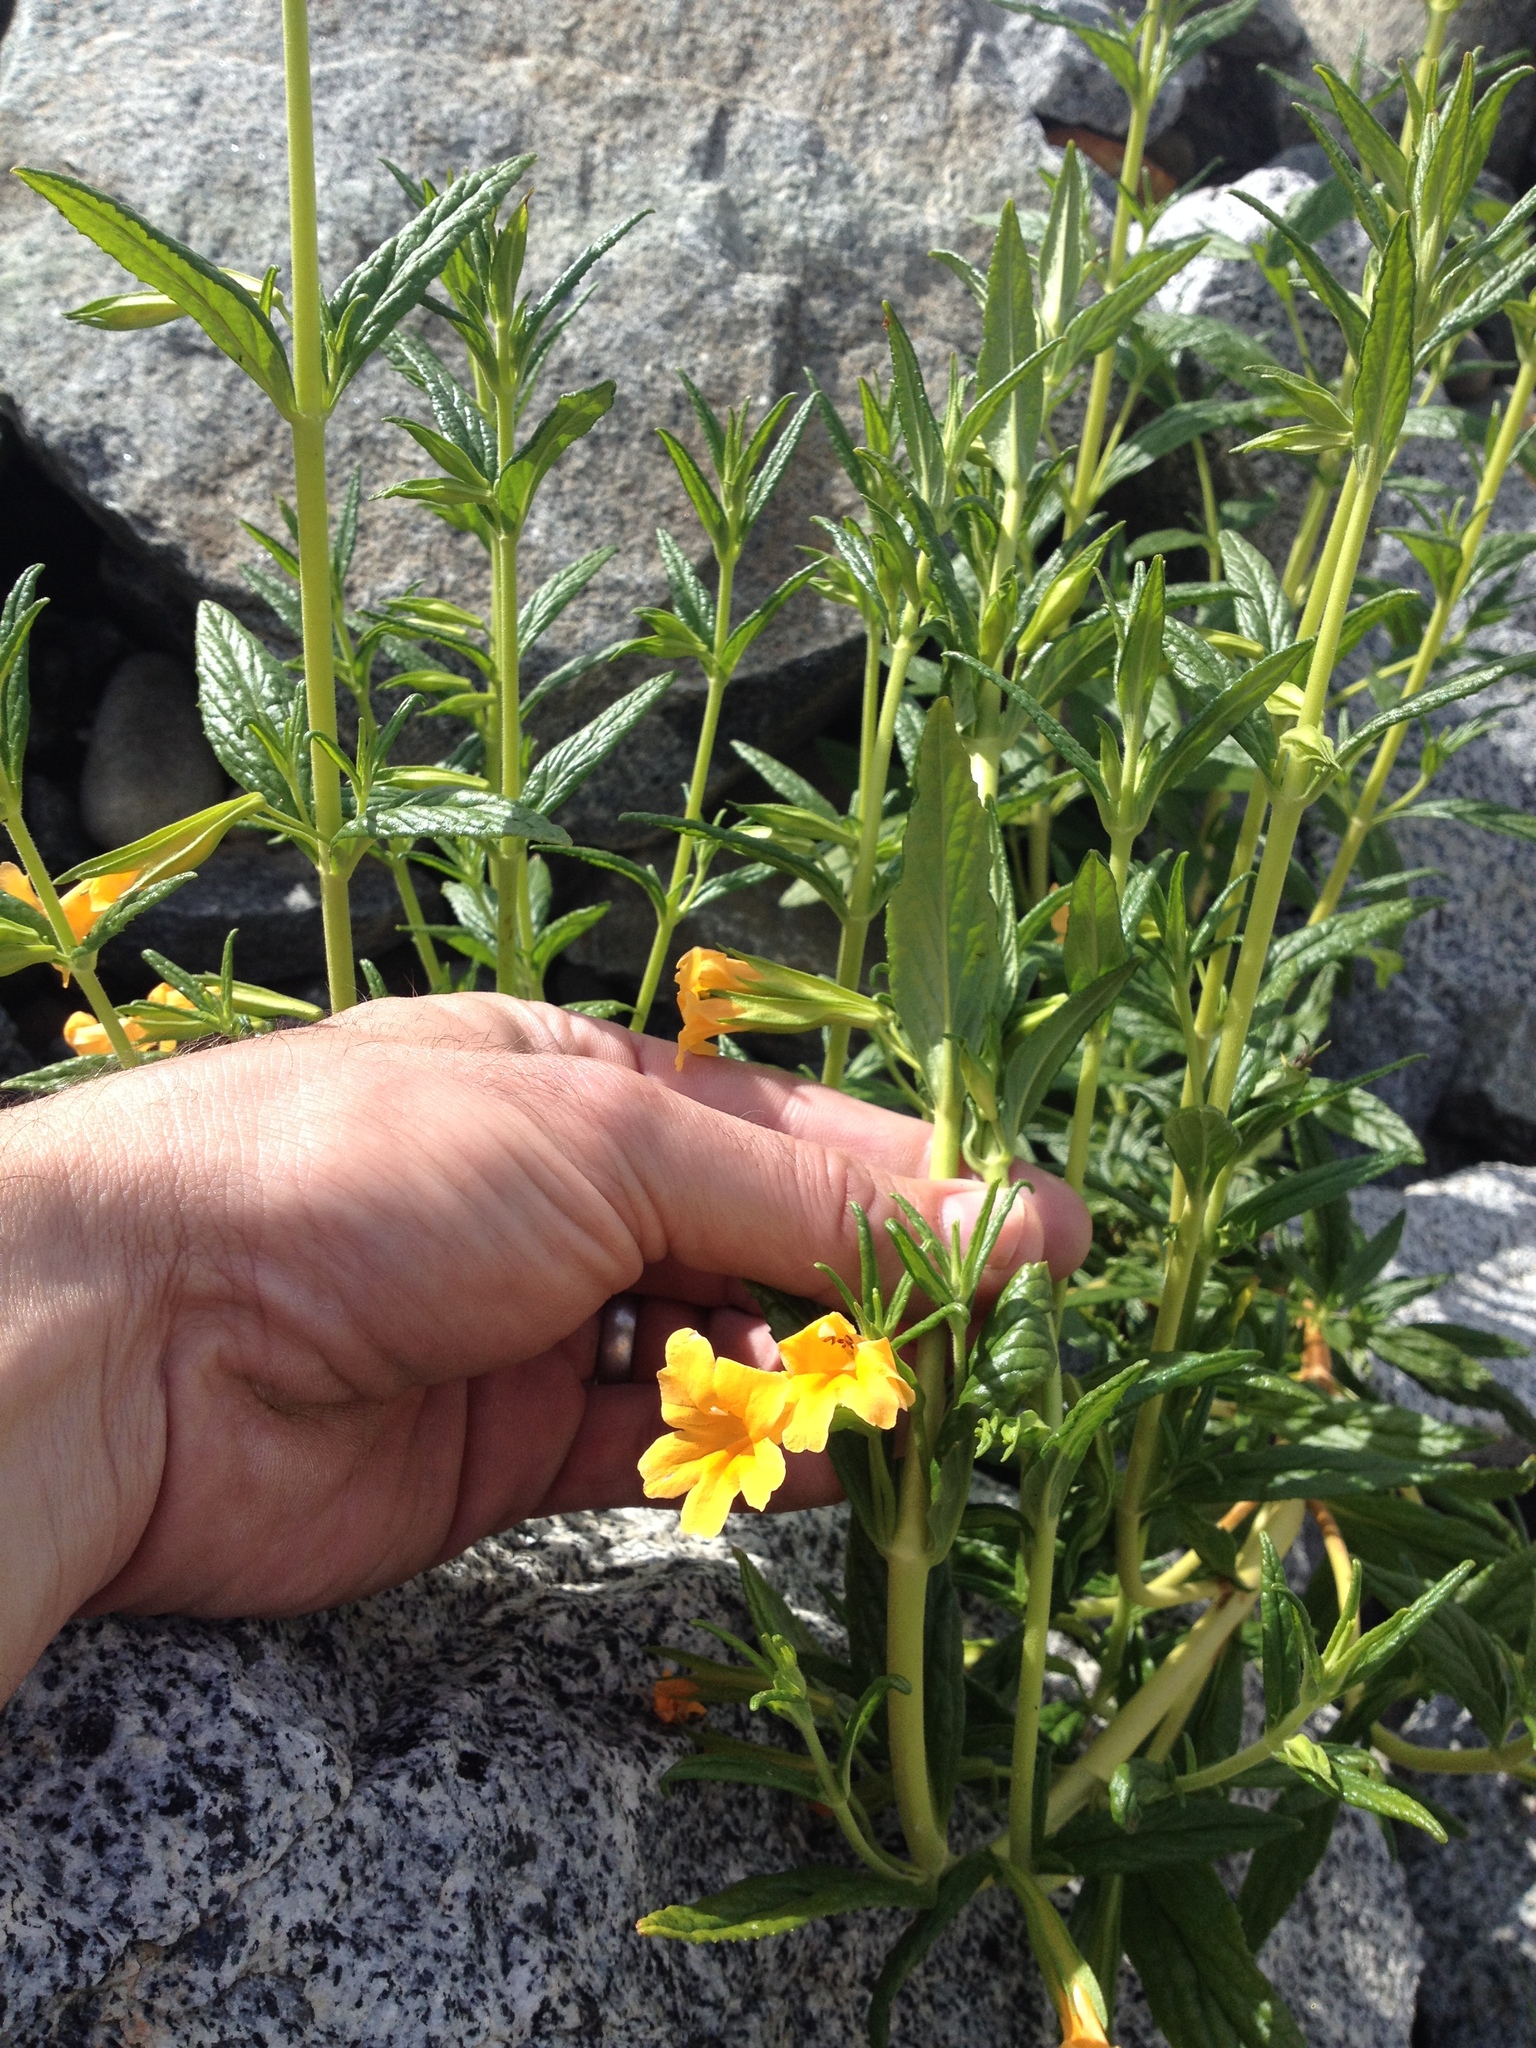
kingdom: Plantae
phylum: Tracheophyta
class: Magnoliopsida
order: Lamiales
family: Phrymaceae
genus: Diplacus
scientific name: Diplacus aurantiacus
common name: Bush monkey-flower
